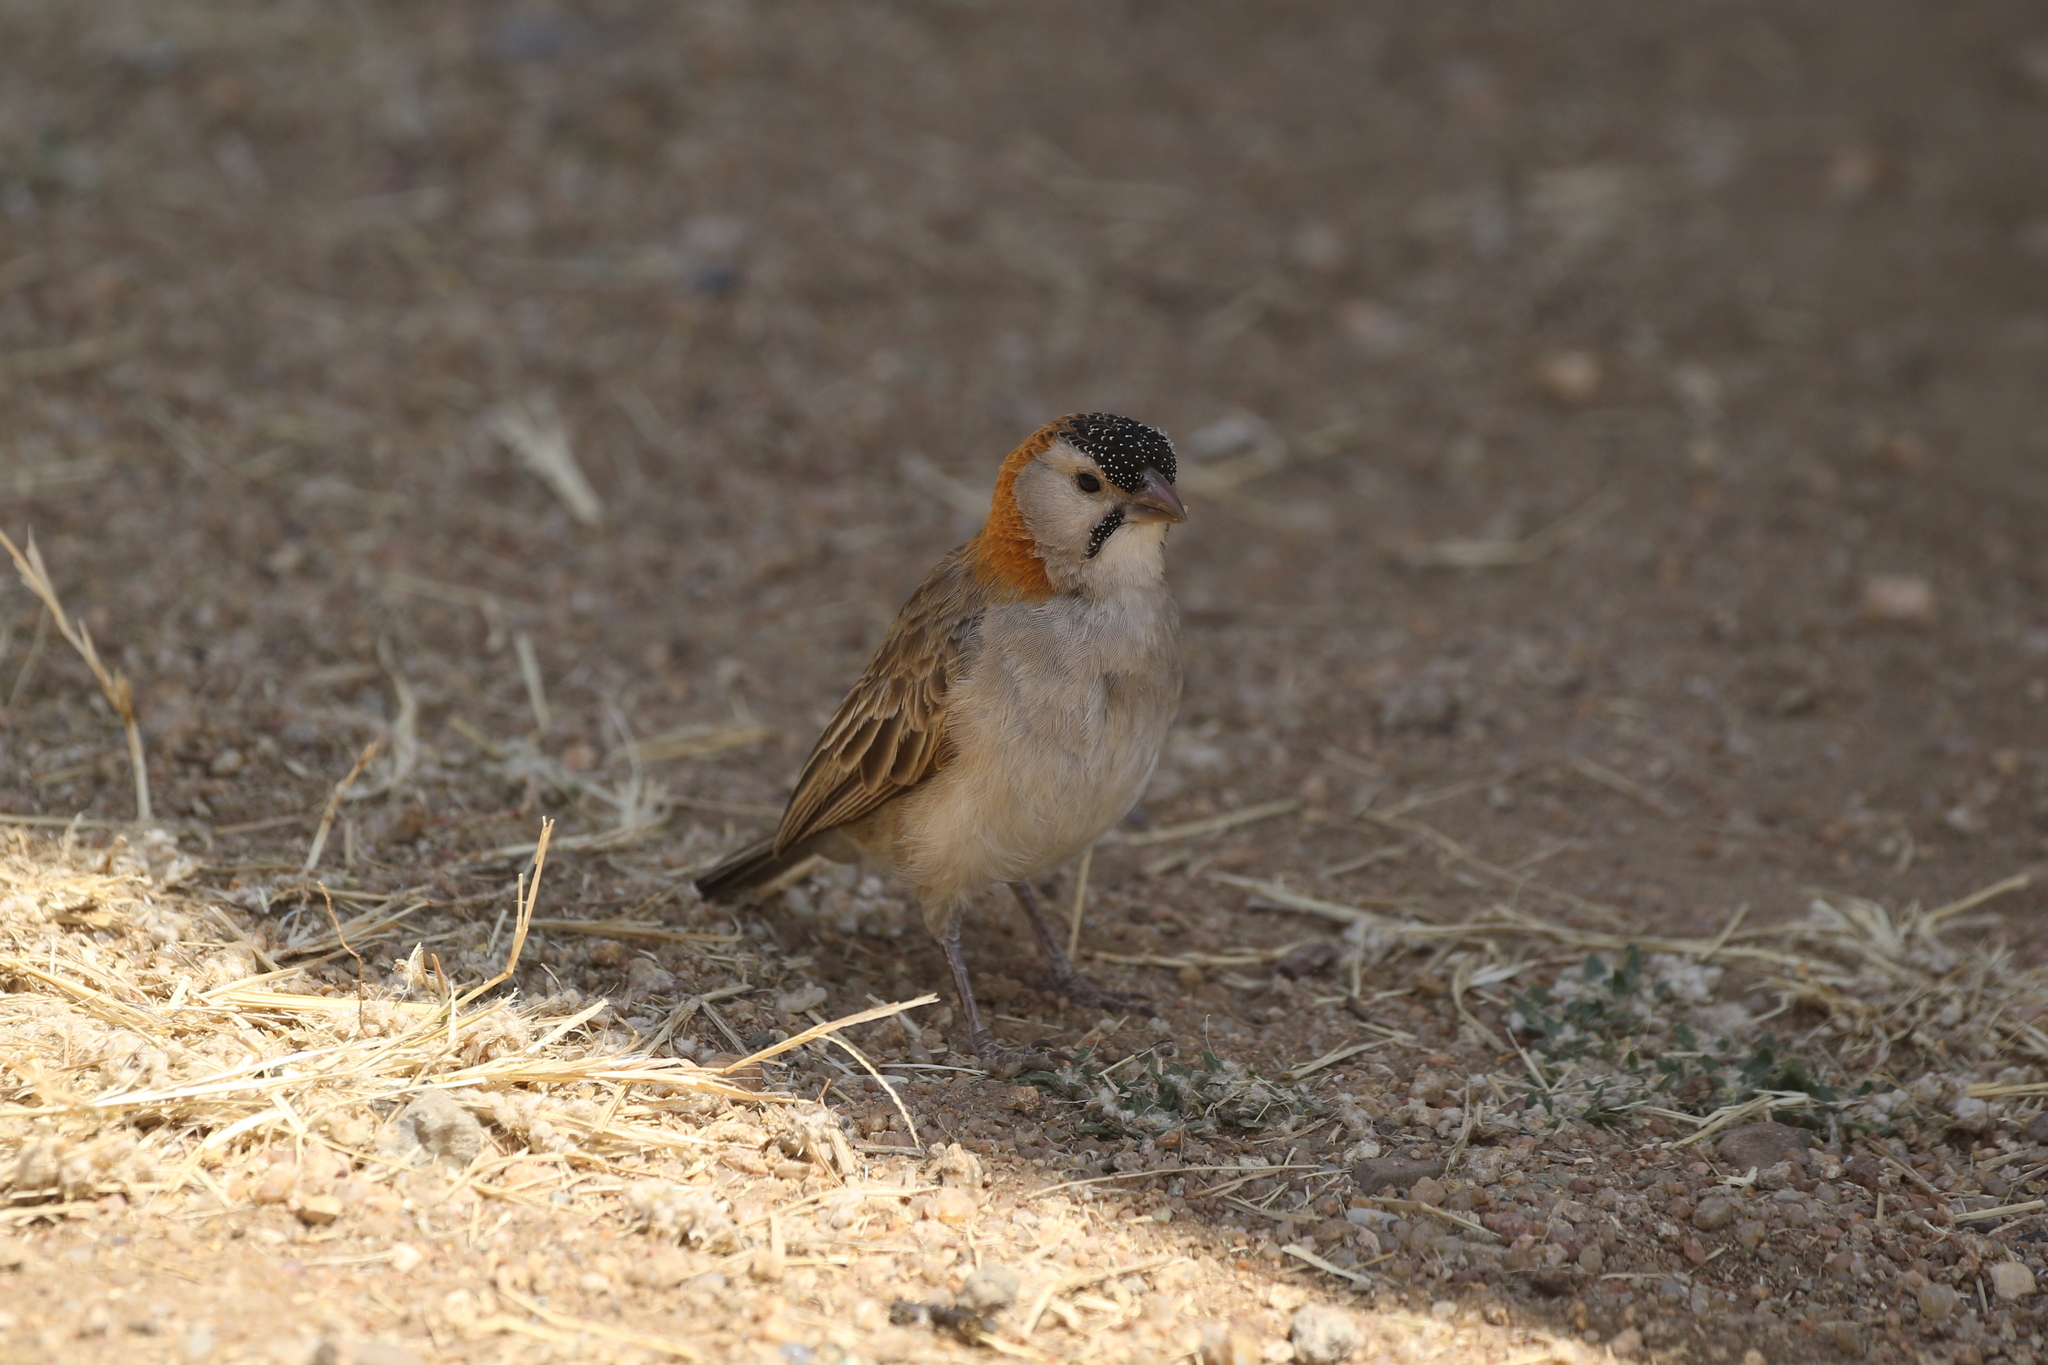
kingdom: Animalia
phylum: Chordata
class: Aves
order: Passeriformes
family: Ploceidae
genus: Sporopipes
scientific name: Sporopipes frontalis
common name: Speckle-fronted weaver
